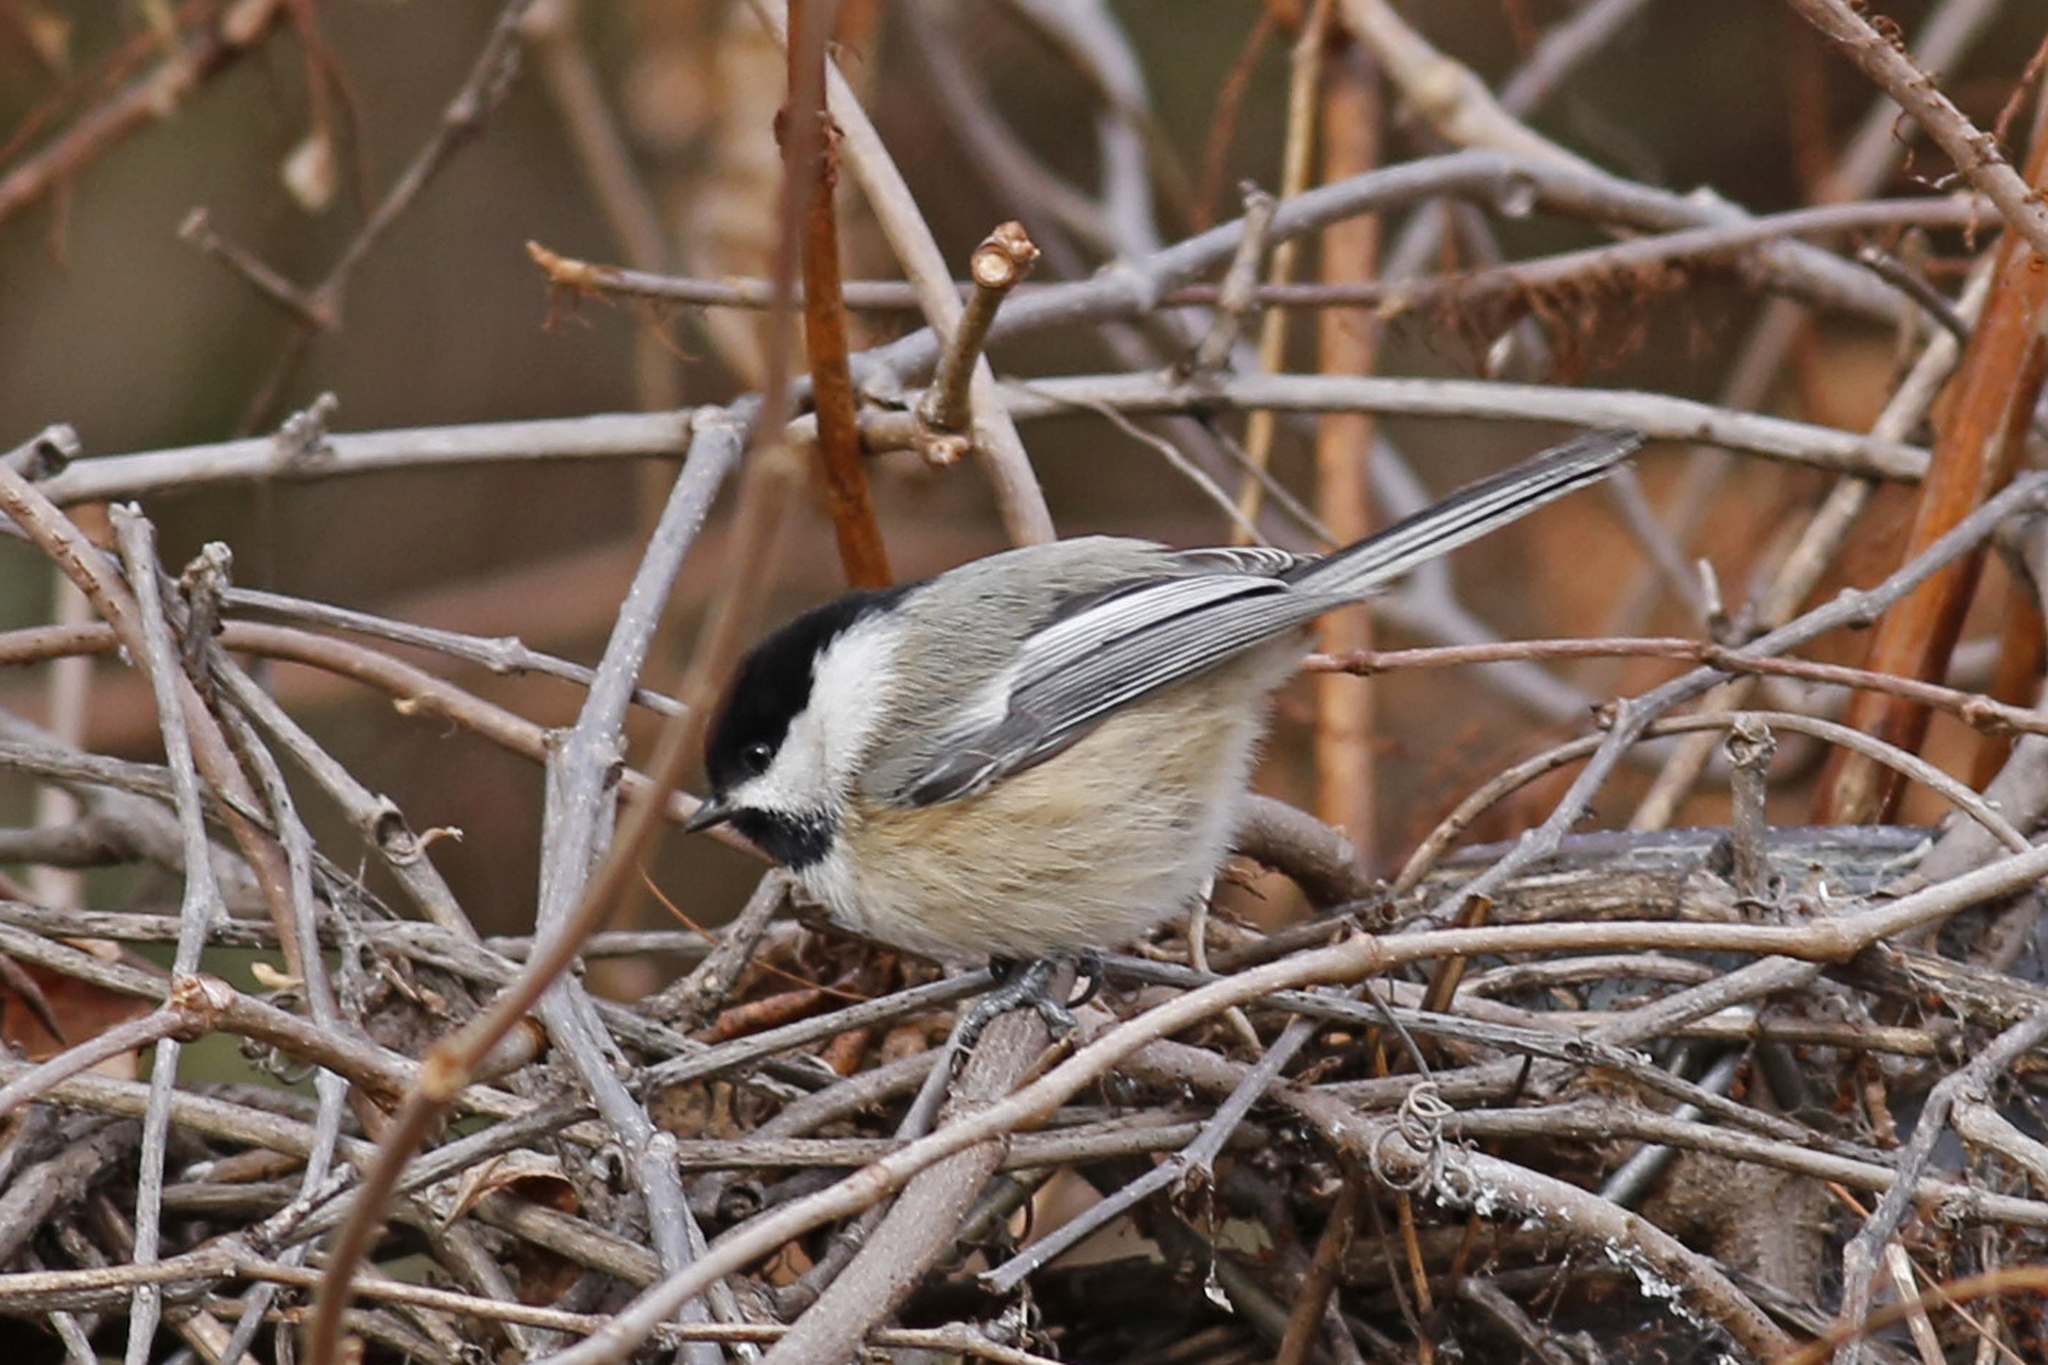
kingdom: Animalia
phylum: Chordata
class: Aves
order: Passeriformes
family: Paridae
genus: Poecile
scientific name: Poecile atricapillus
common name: Black-capped chickadee
